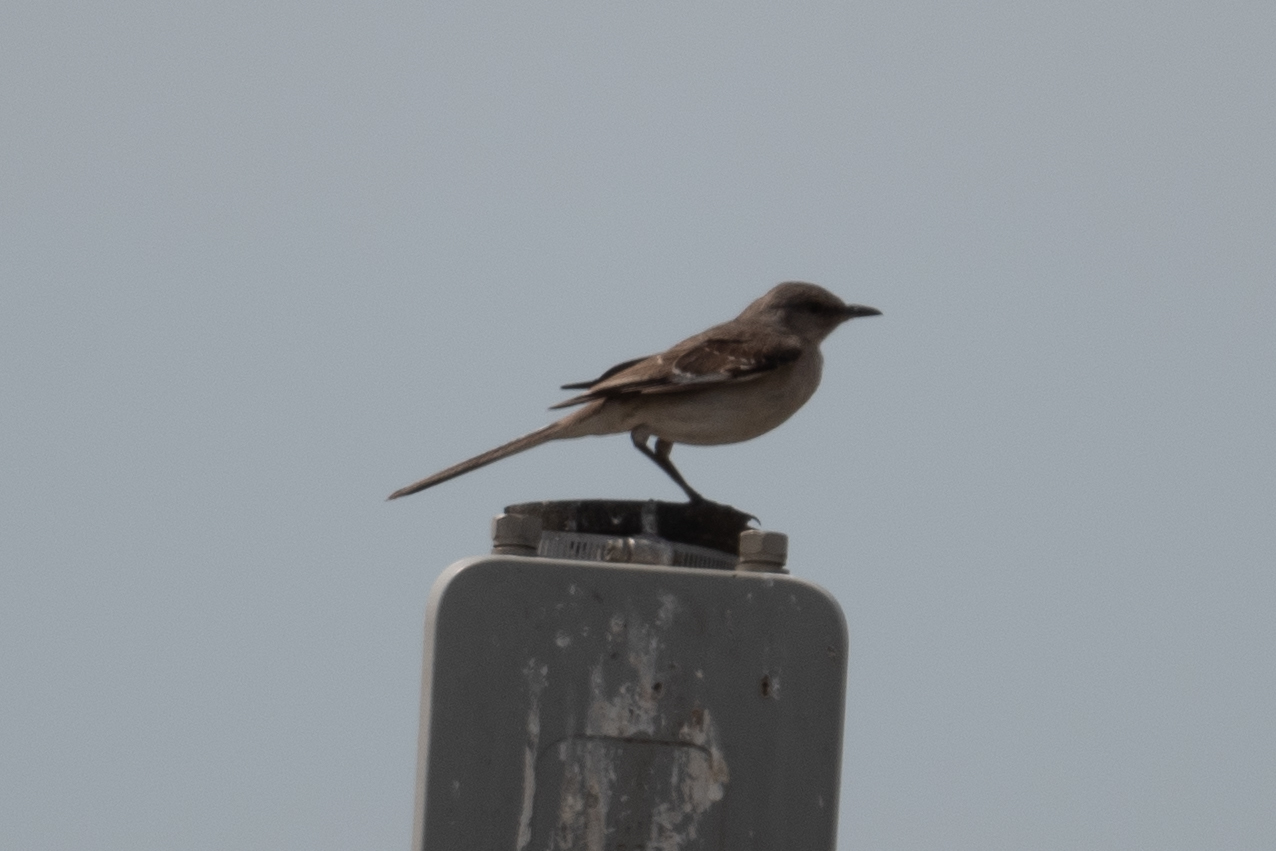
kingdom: Animalia
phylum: Chordata
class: Aves
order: Passeriformes
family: Mimidae
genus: Mimus
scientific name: Mimus polyglottos
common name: Northern mockingbird
